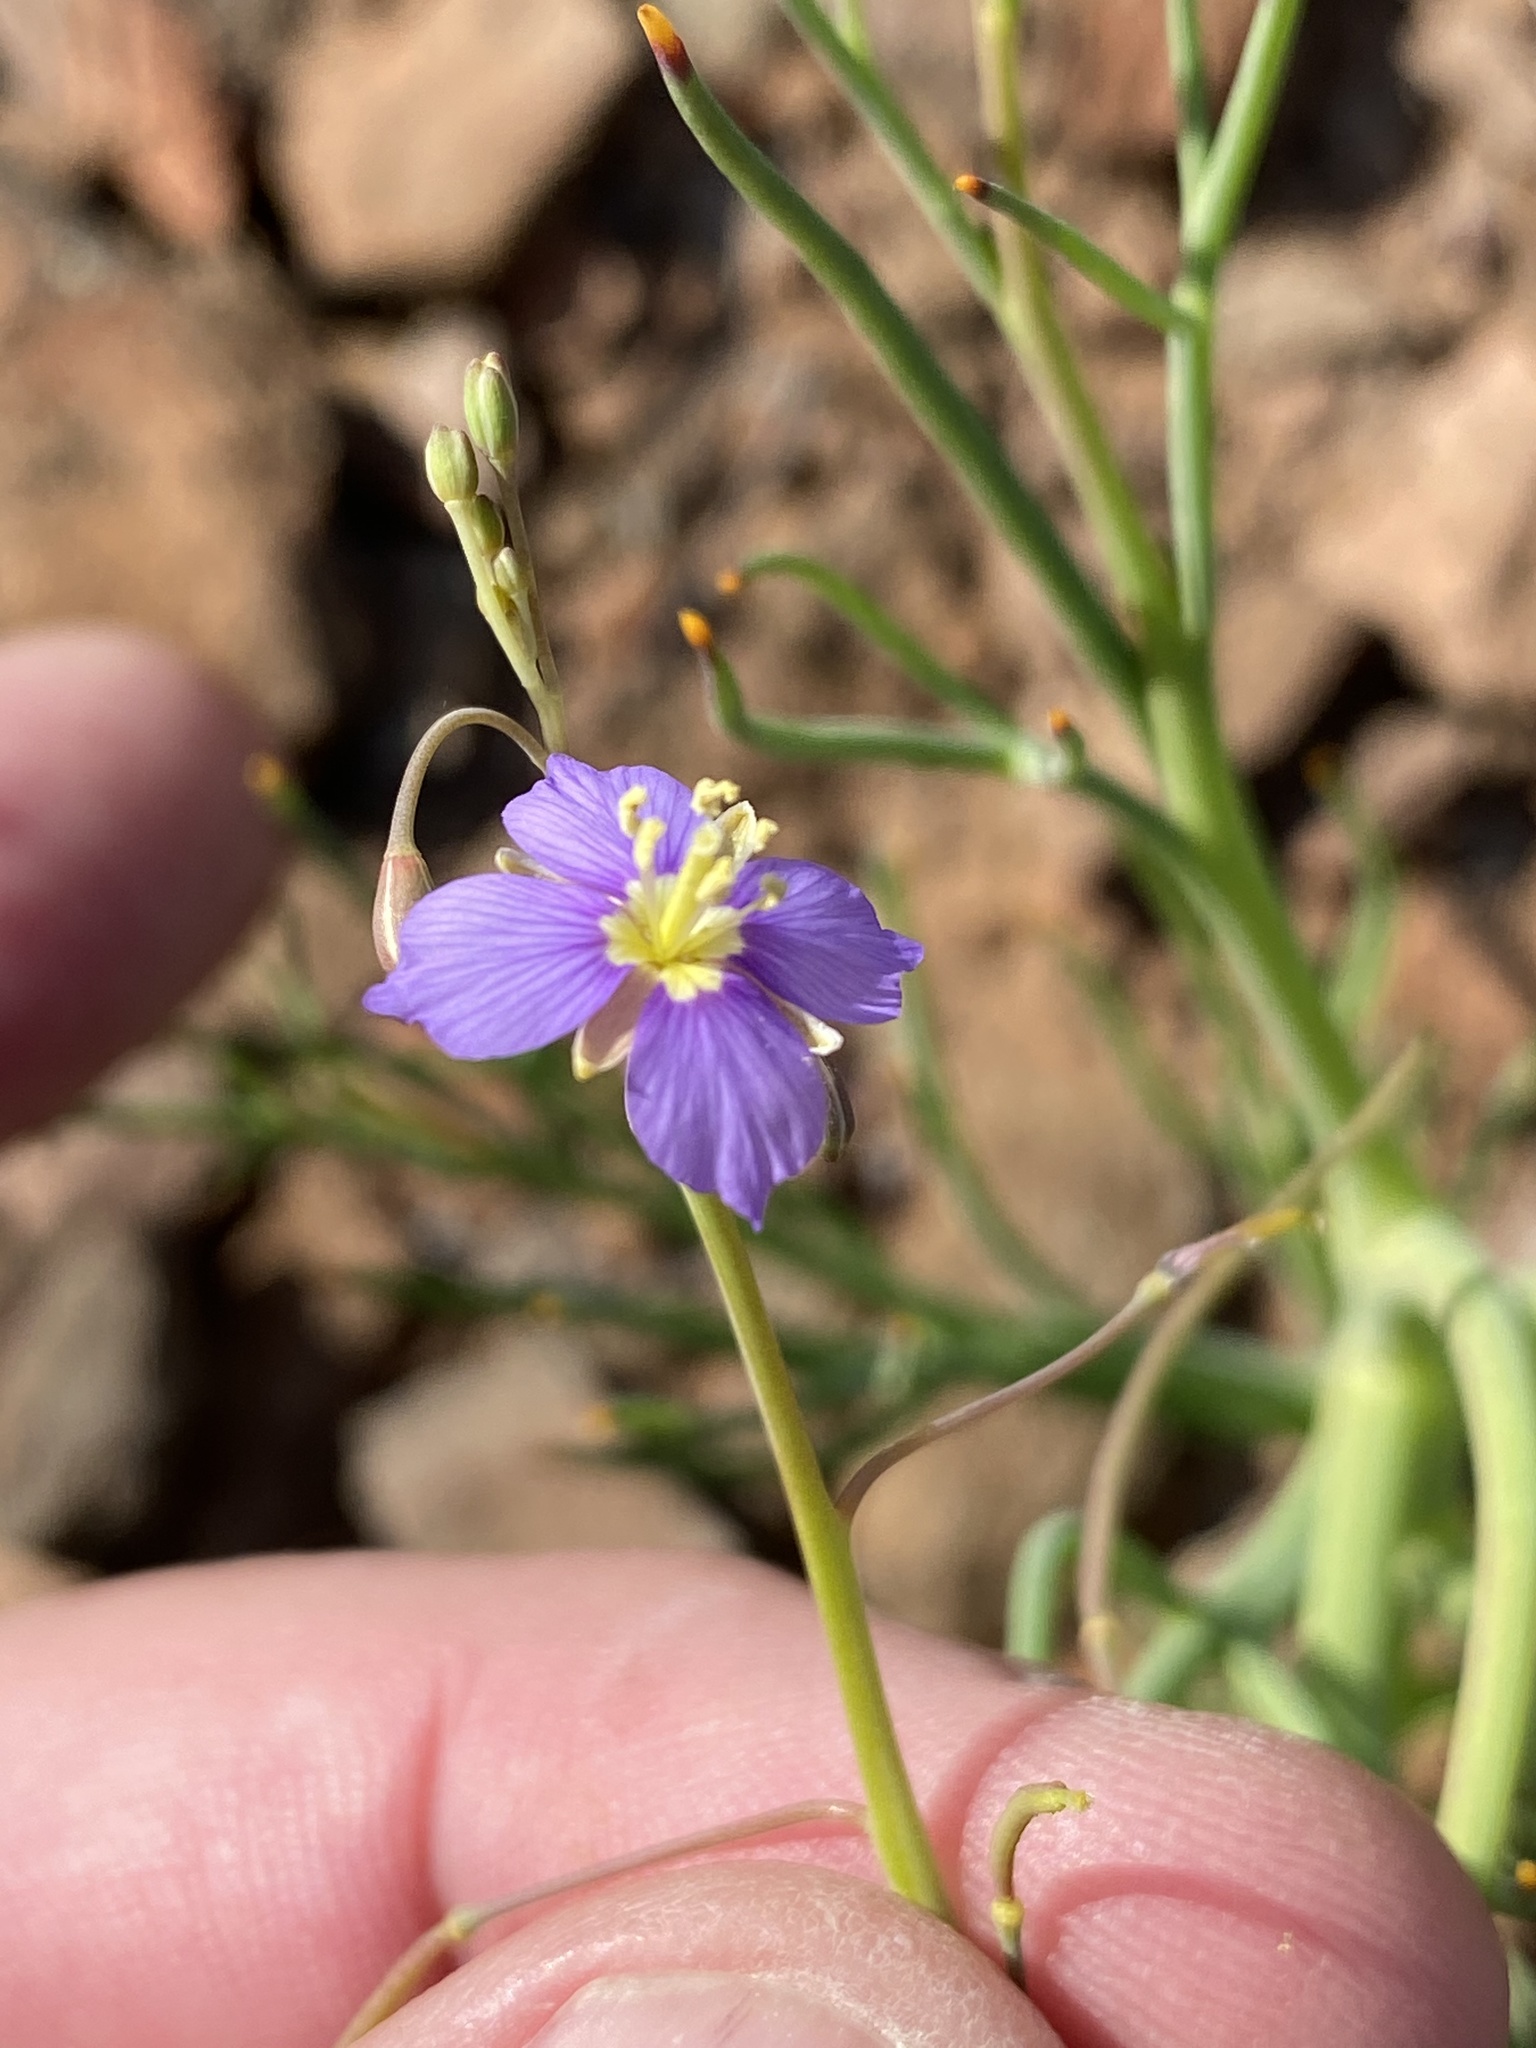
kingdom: Plantae
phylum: Tracheophyta
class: Magnoliopsida
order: Brassicales
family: Brassicaceae
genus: Heliophila
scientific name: Heliophila trifurca
